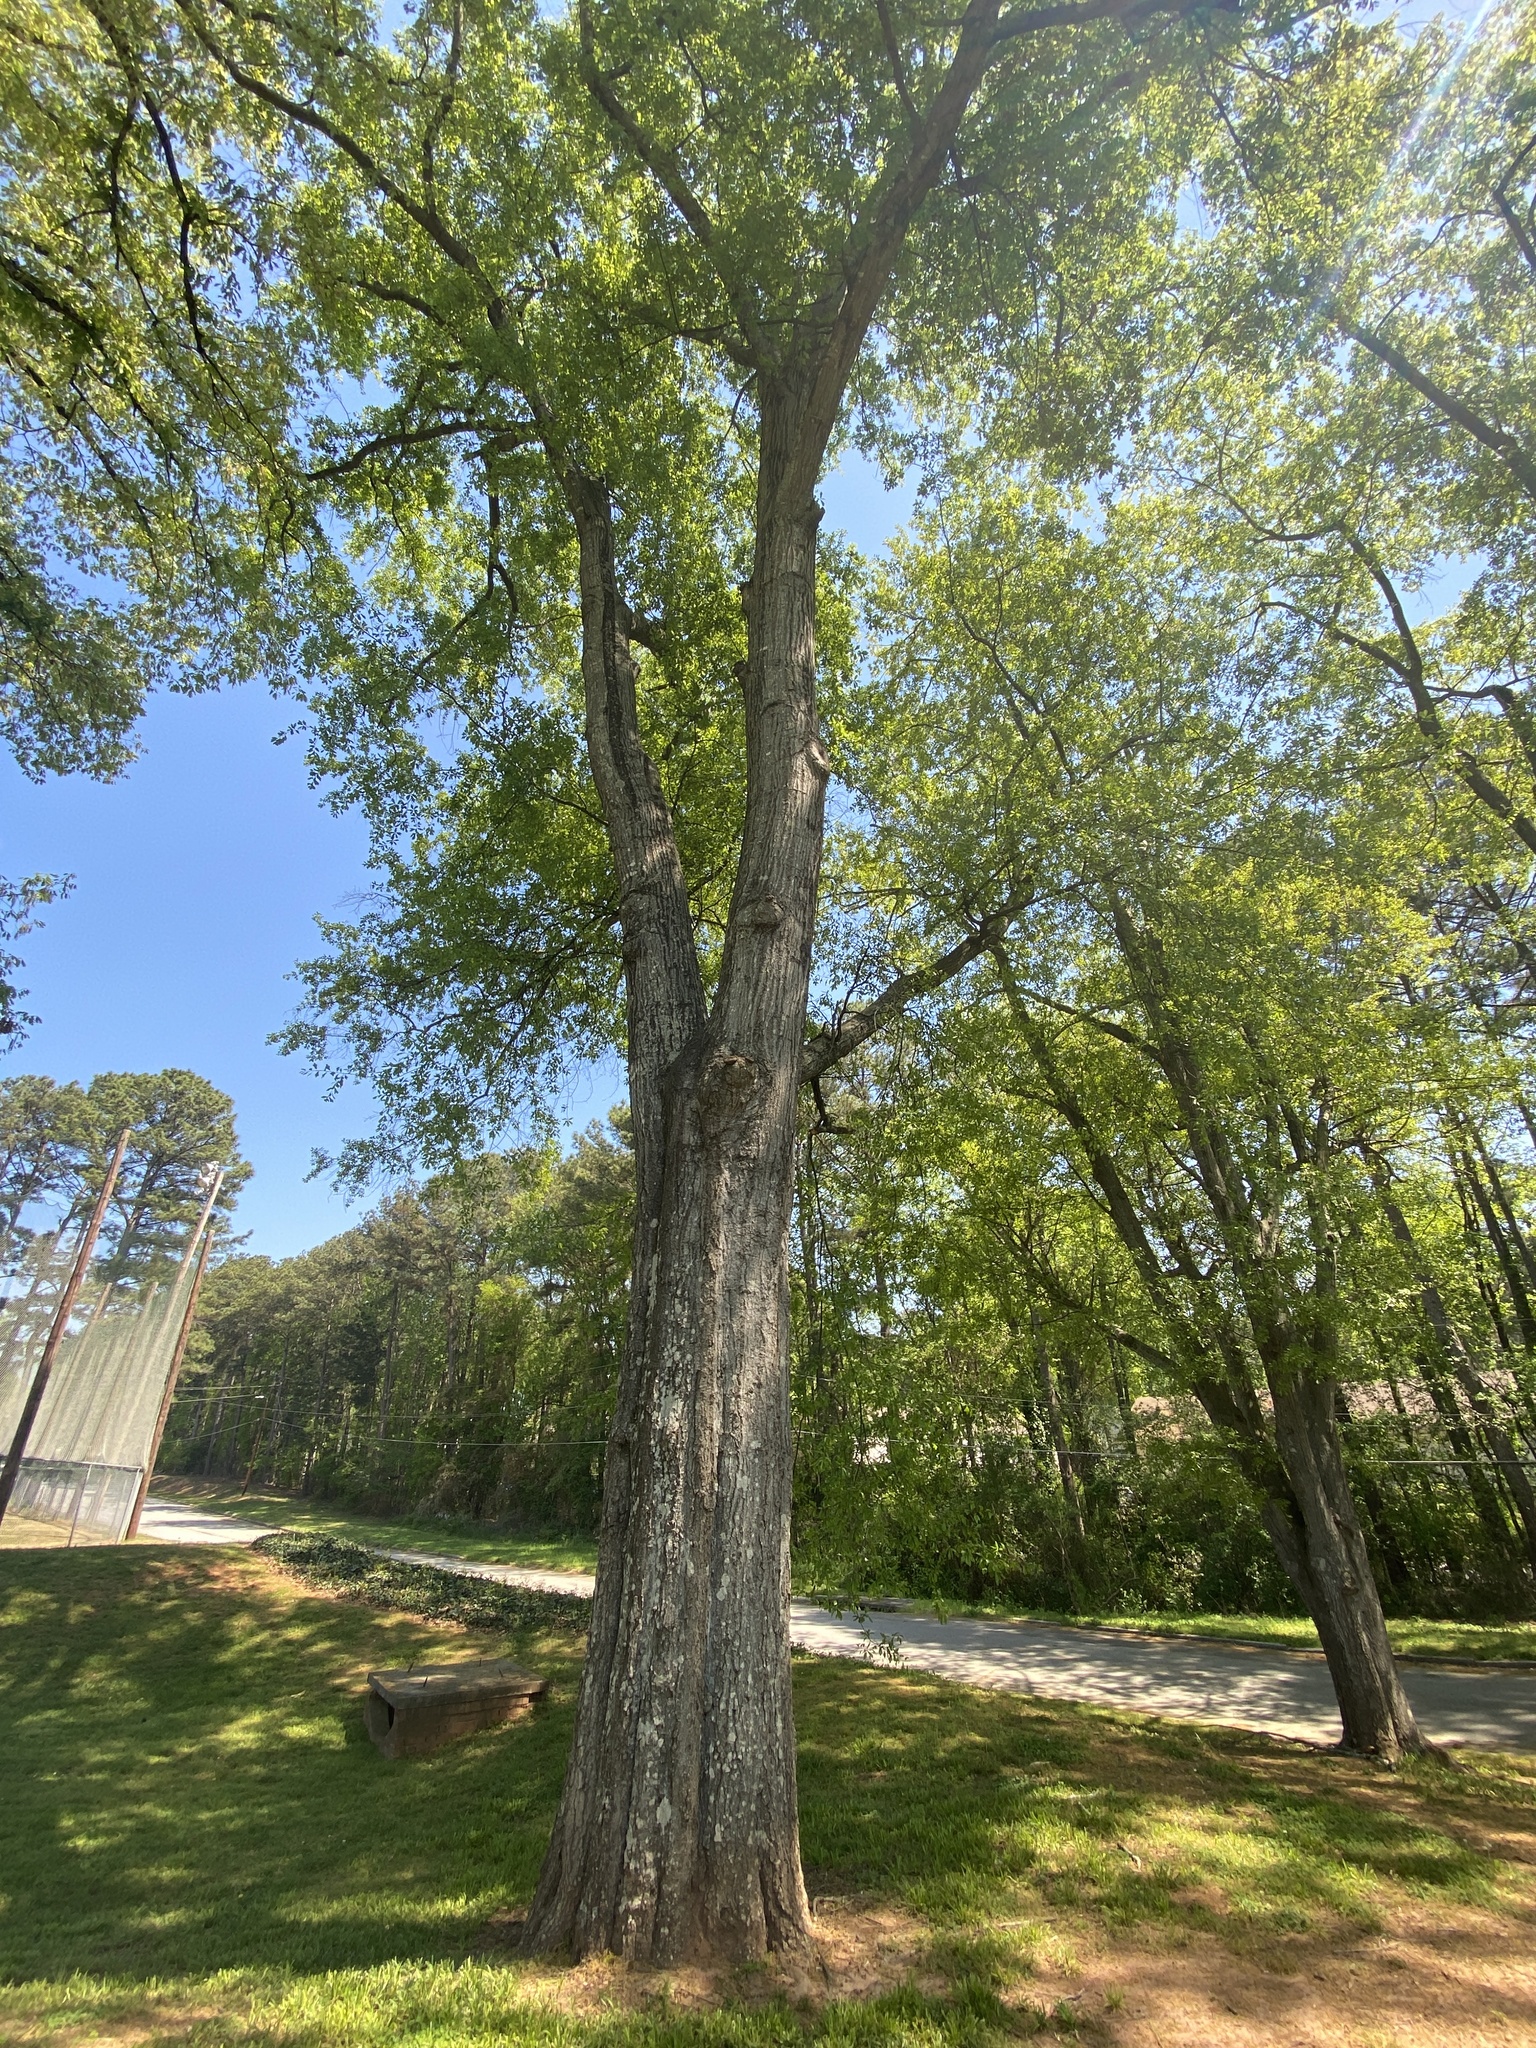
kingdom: Plantae
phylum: Tracheophyta
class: Magnoliopsida
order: Fagales
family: Fagaceae
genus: Quercus
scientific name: Quercus nigra
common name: Water oak
